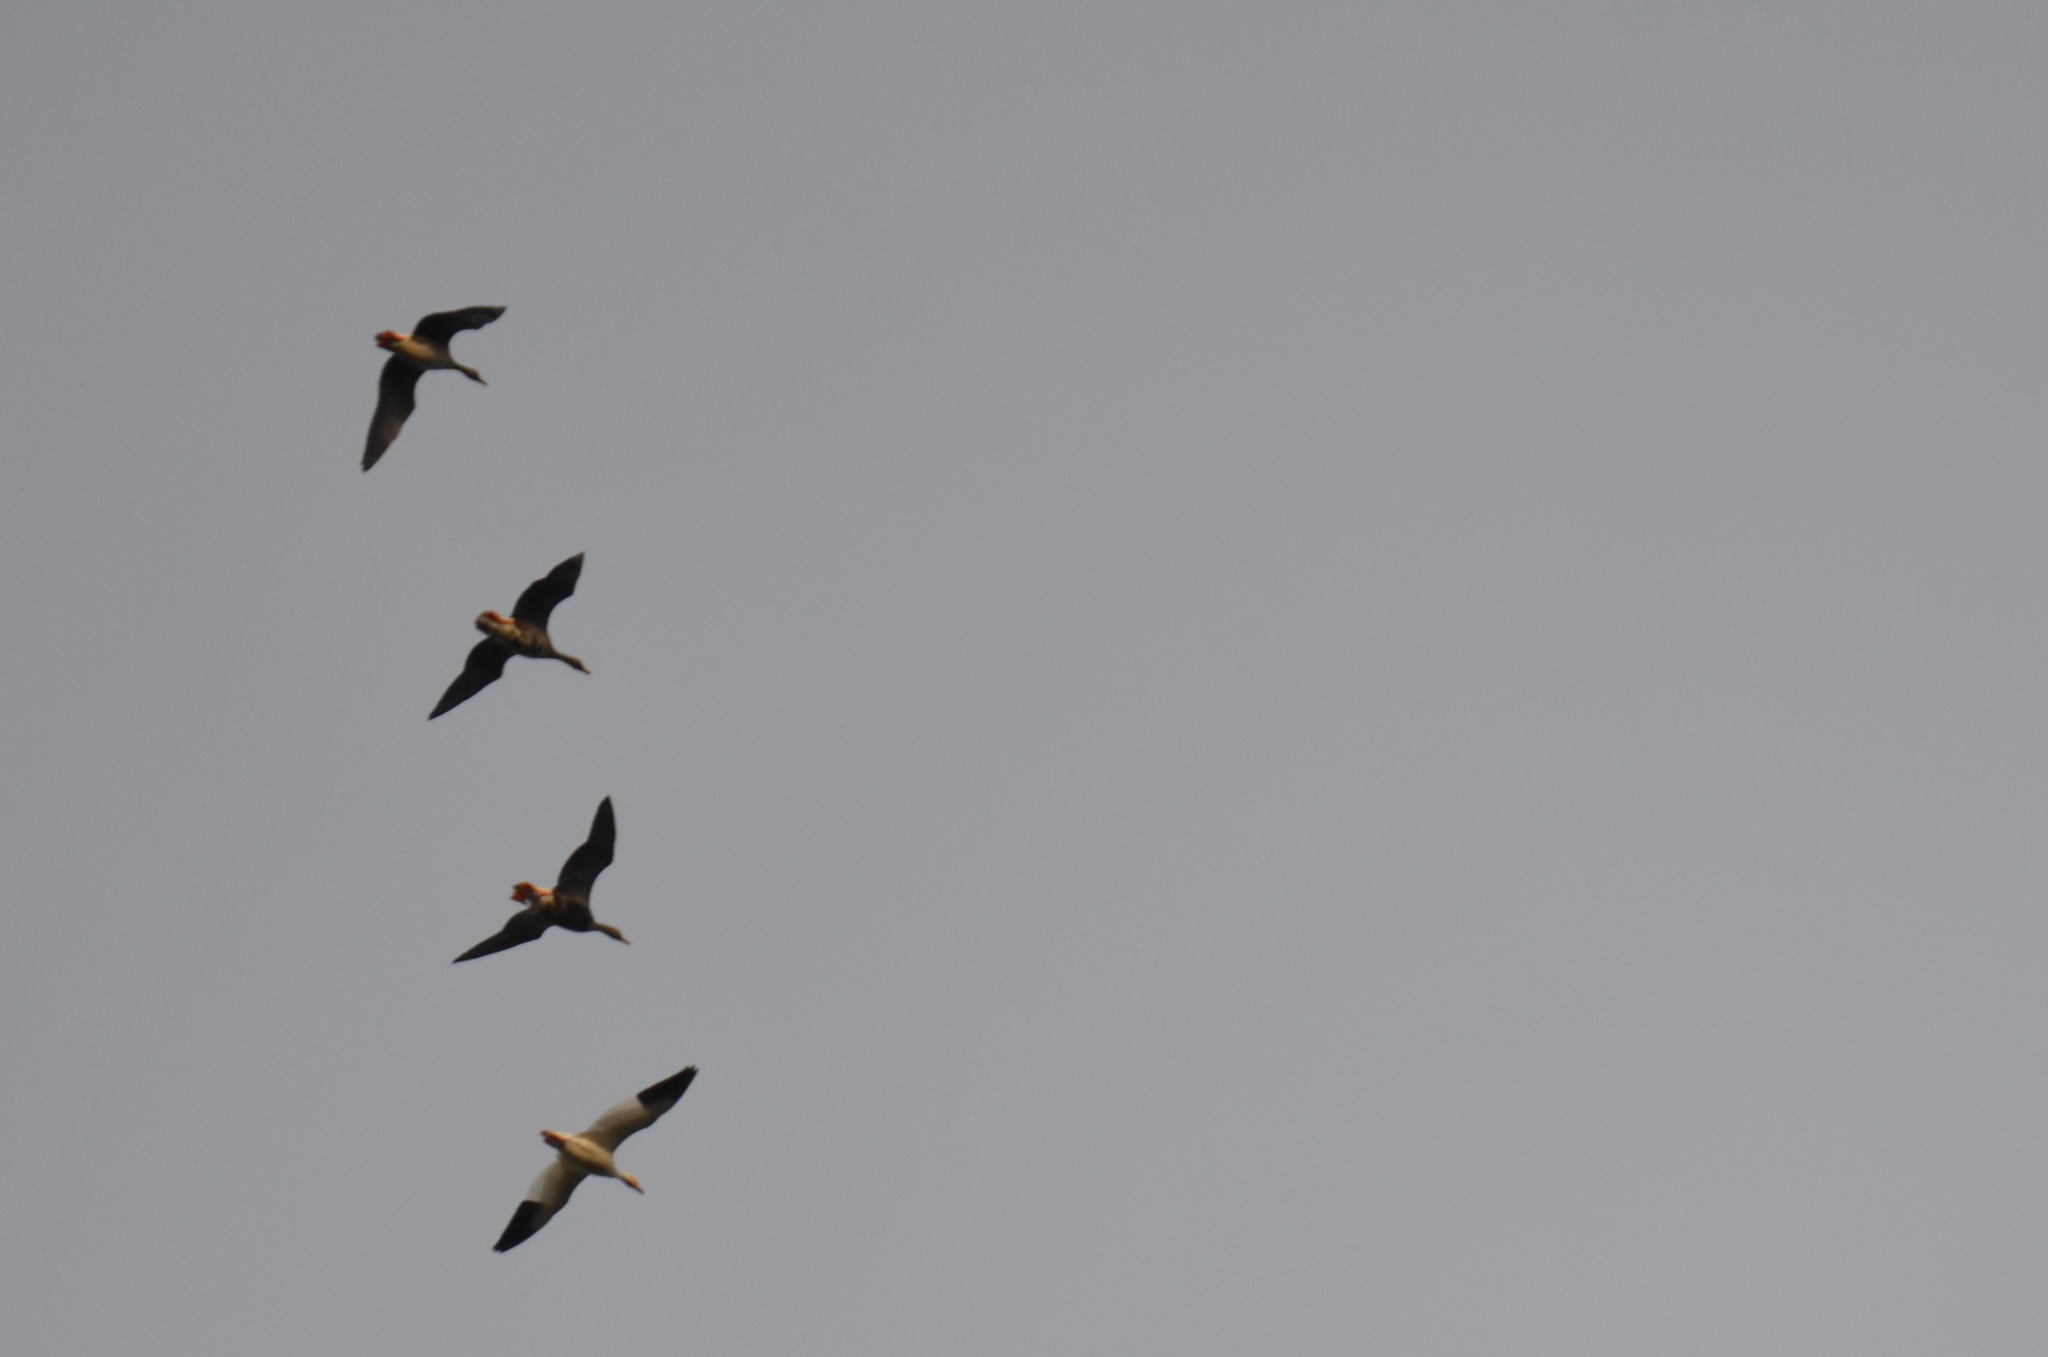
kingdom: Animalia
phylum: Chordata
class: Aves
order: Anseriformes
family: Anatidae
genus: Anser
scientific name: Anser albifrons
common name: Greater white-fronted goose
